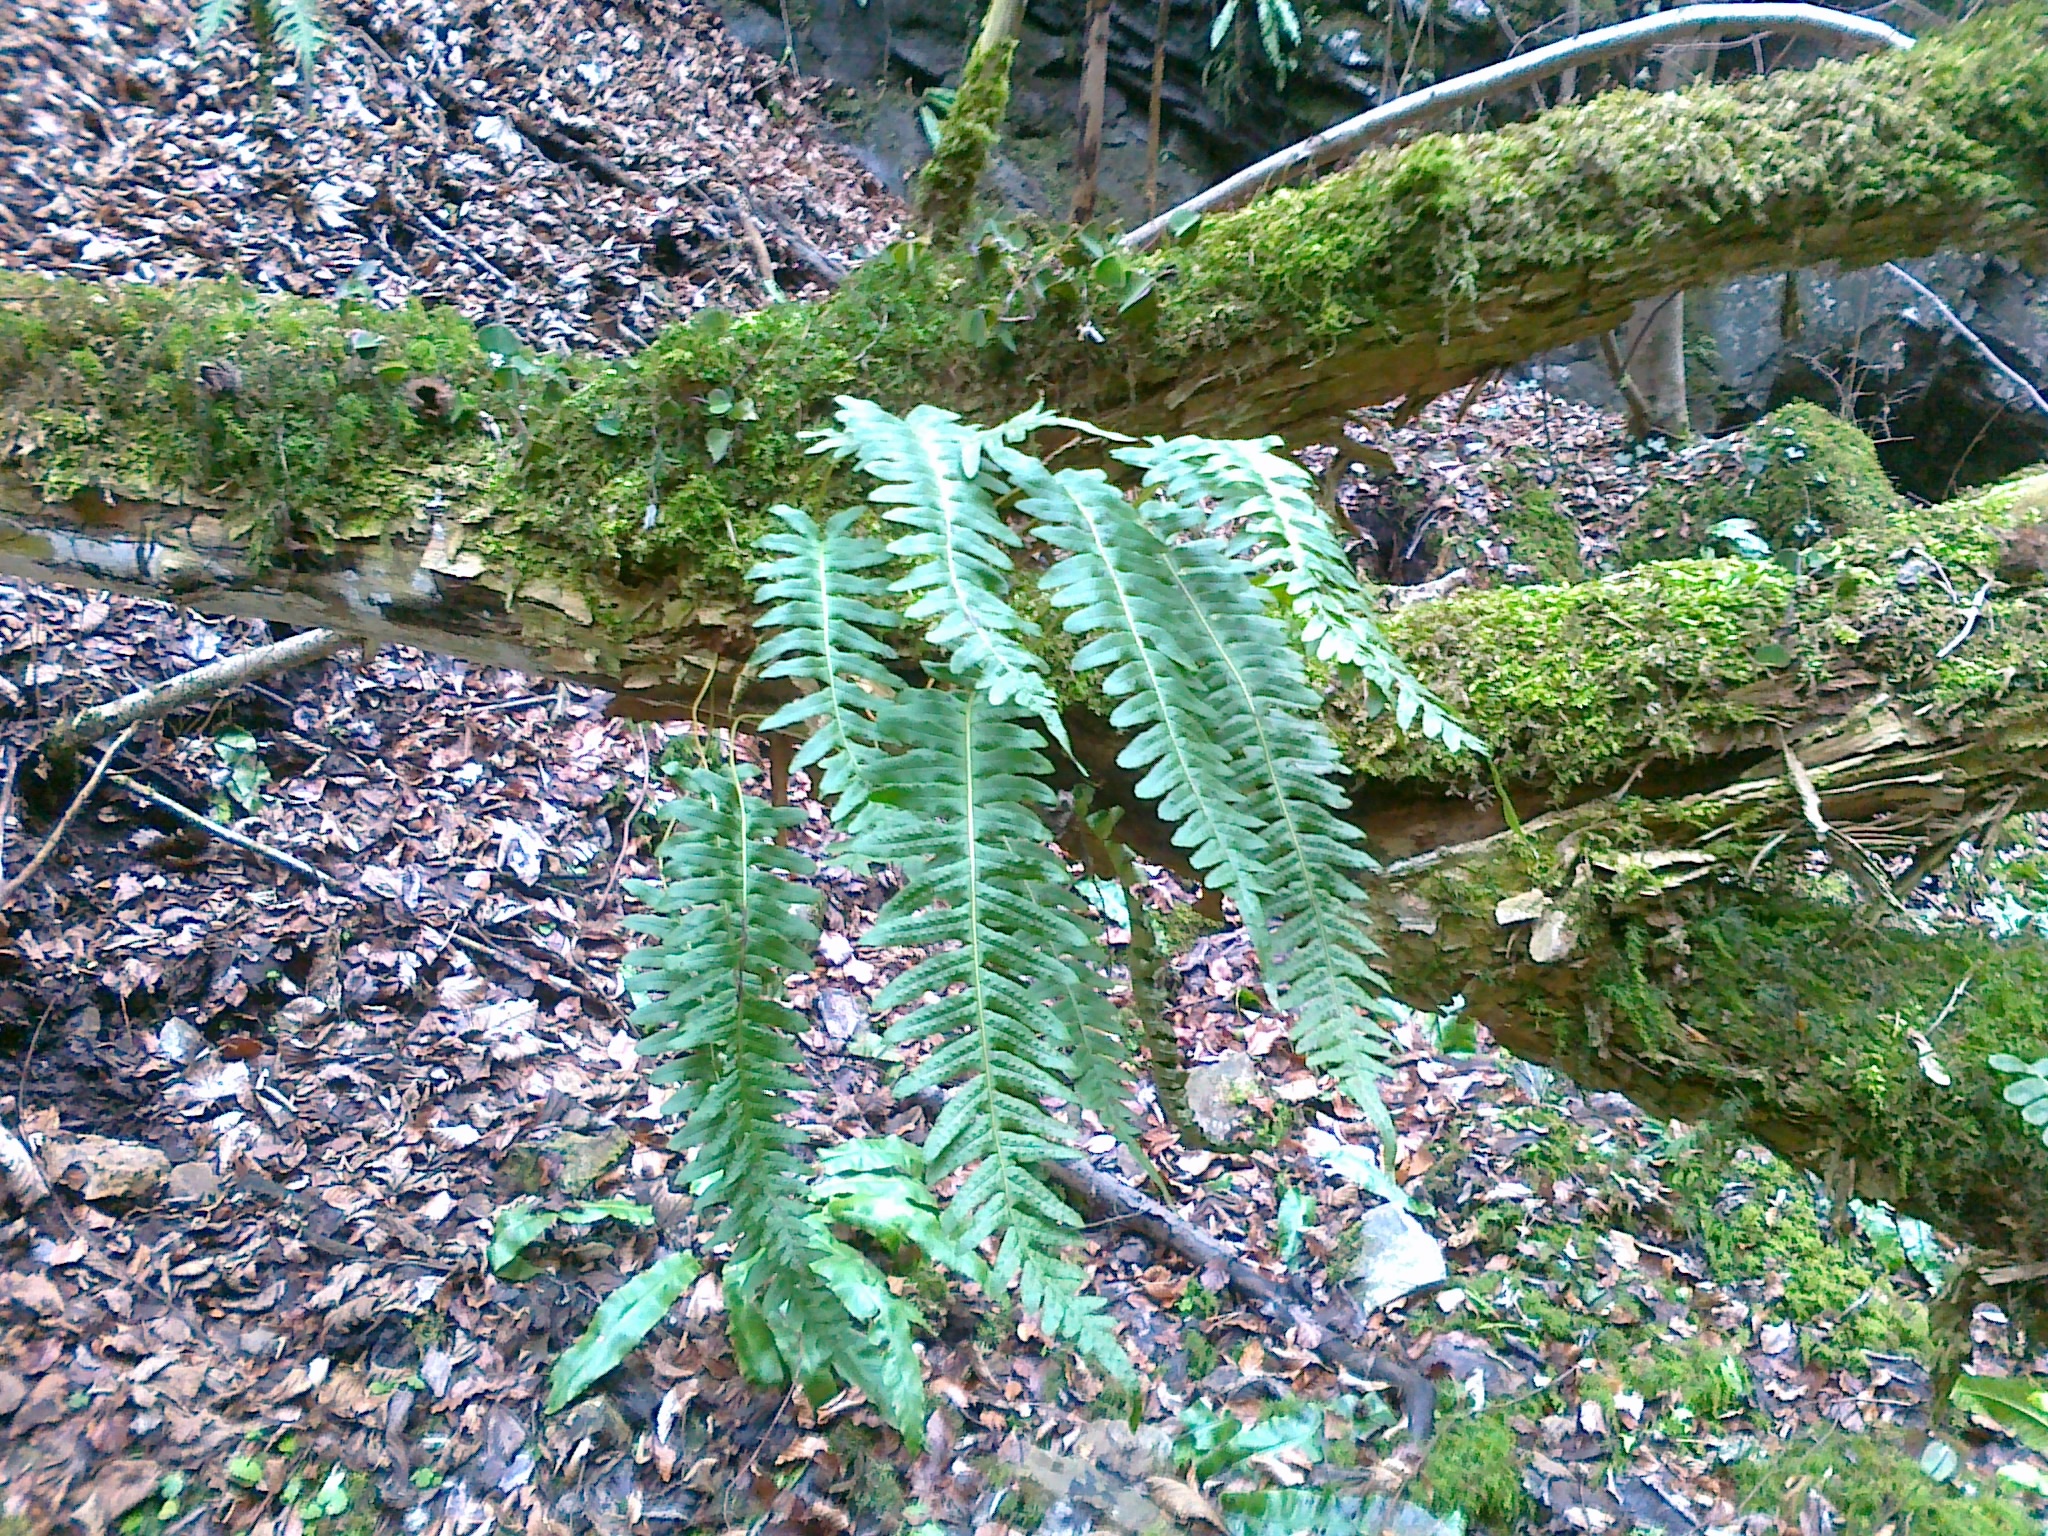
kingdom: Plantae
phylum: Tracheophyta
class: Polypodiopsida
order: Polypodiales
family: Polypodiaceae
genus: Polypodium
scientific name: Polypodium vulgare
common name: Common polypody
